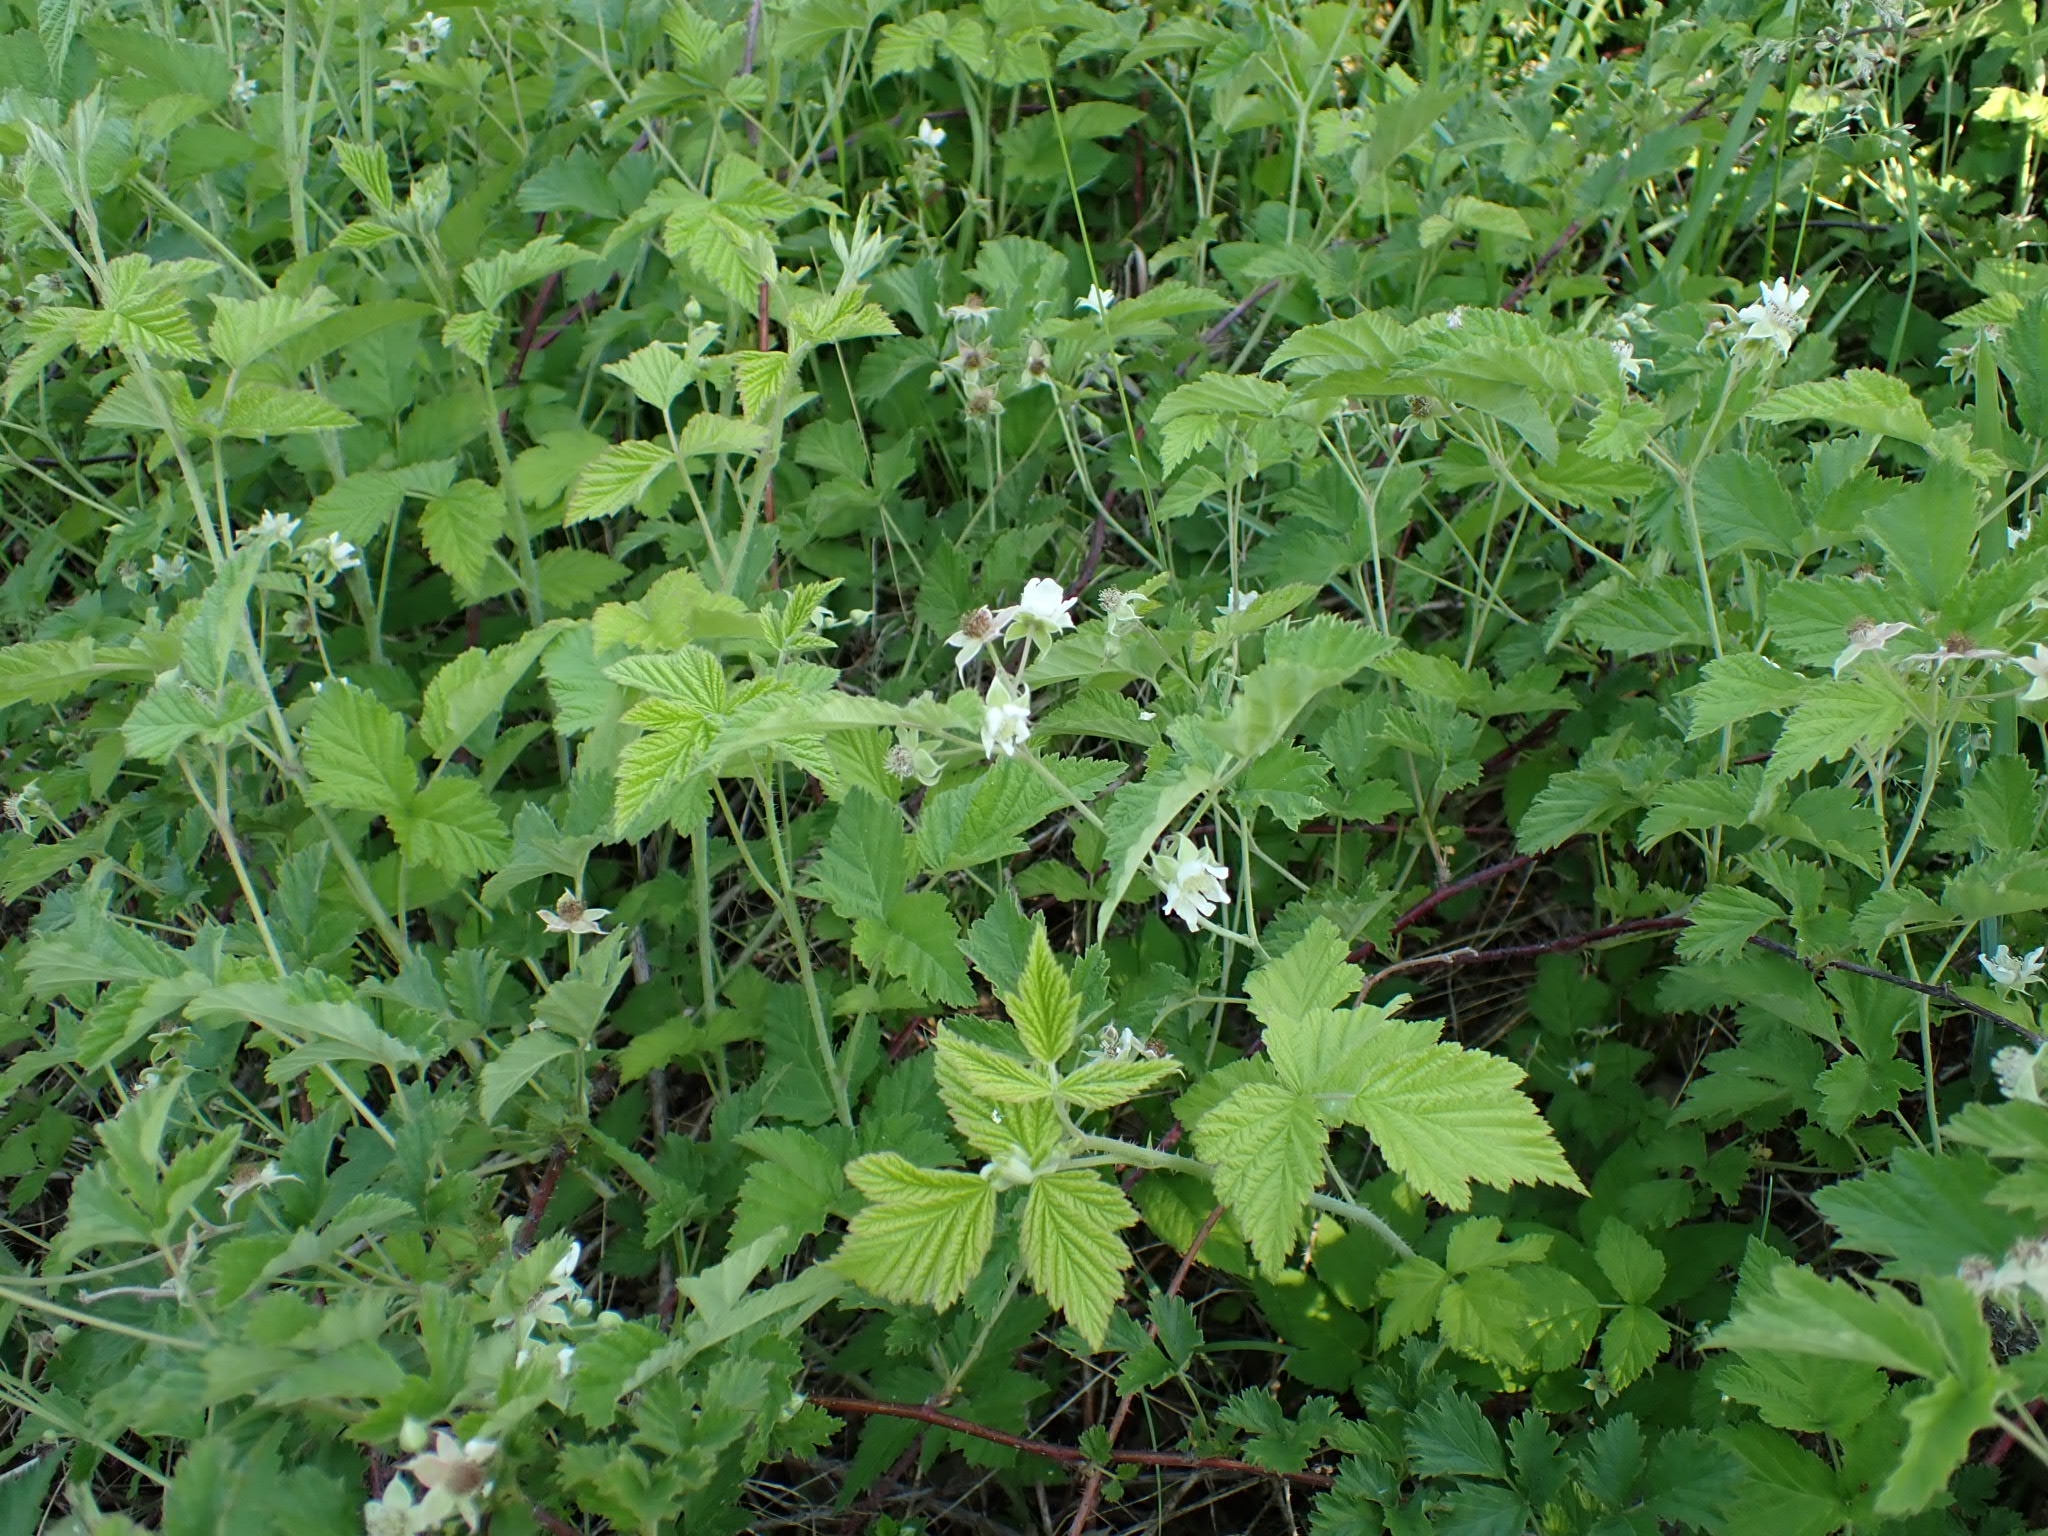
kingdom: Plantae
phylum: Tracheophyta
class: Magnoliopsida
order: Rosales
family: Rosaceae
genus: Rubus
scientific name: Rubus caesius
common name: Dewberry
